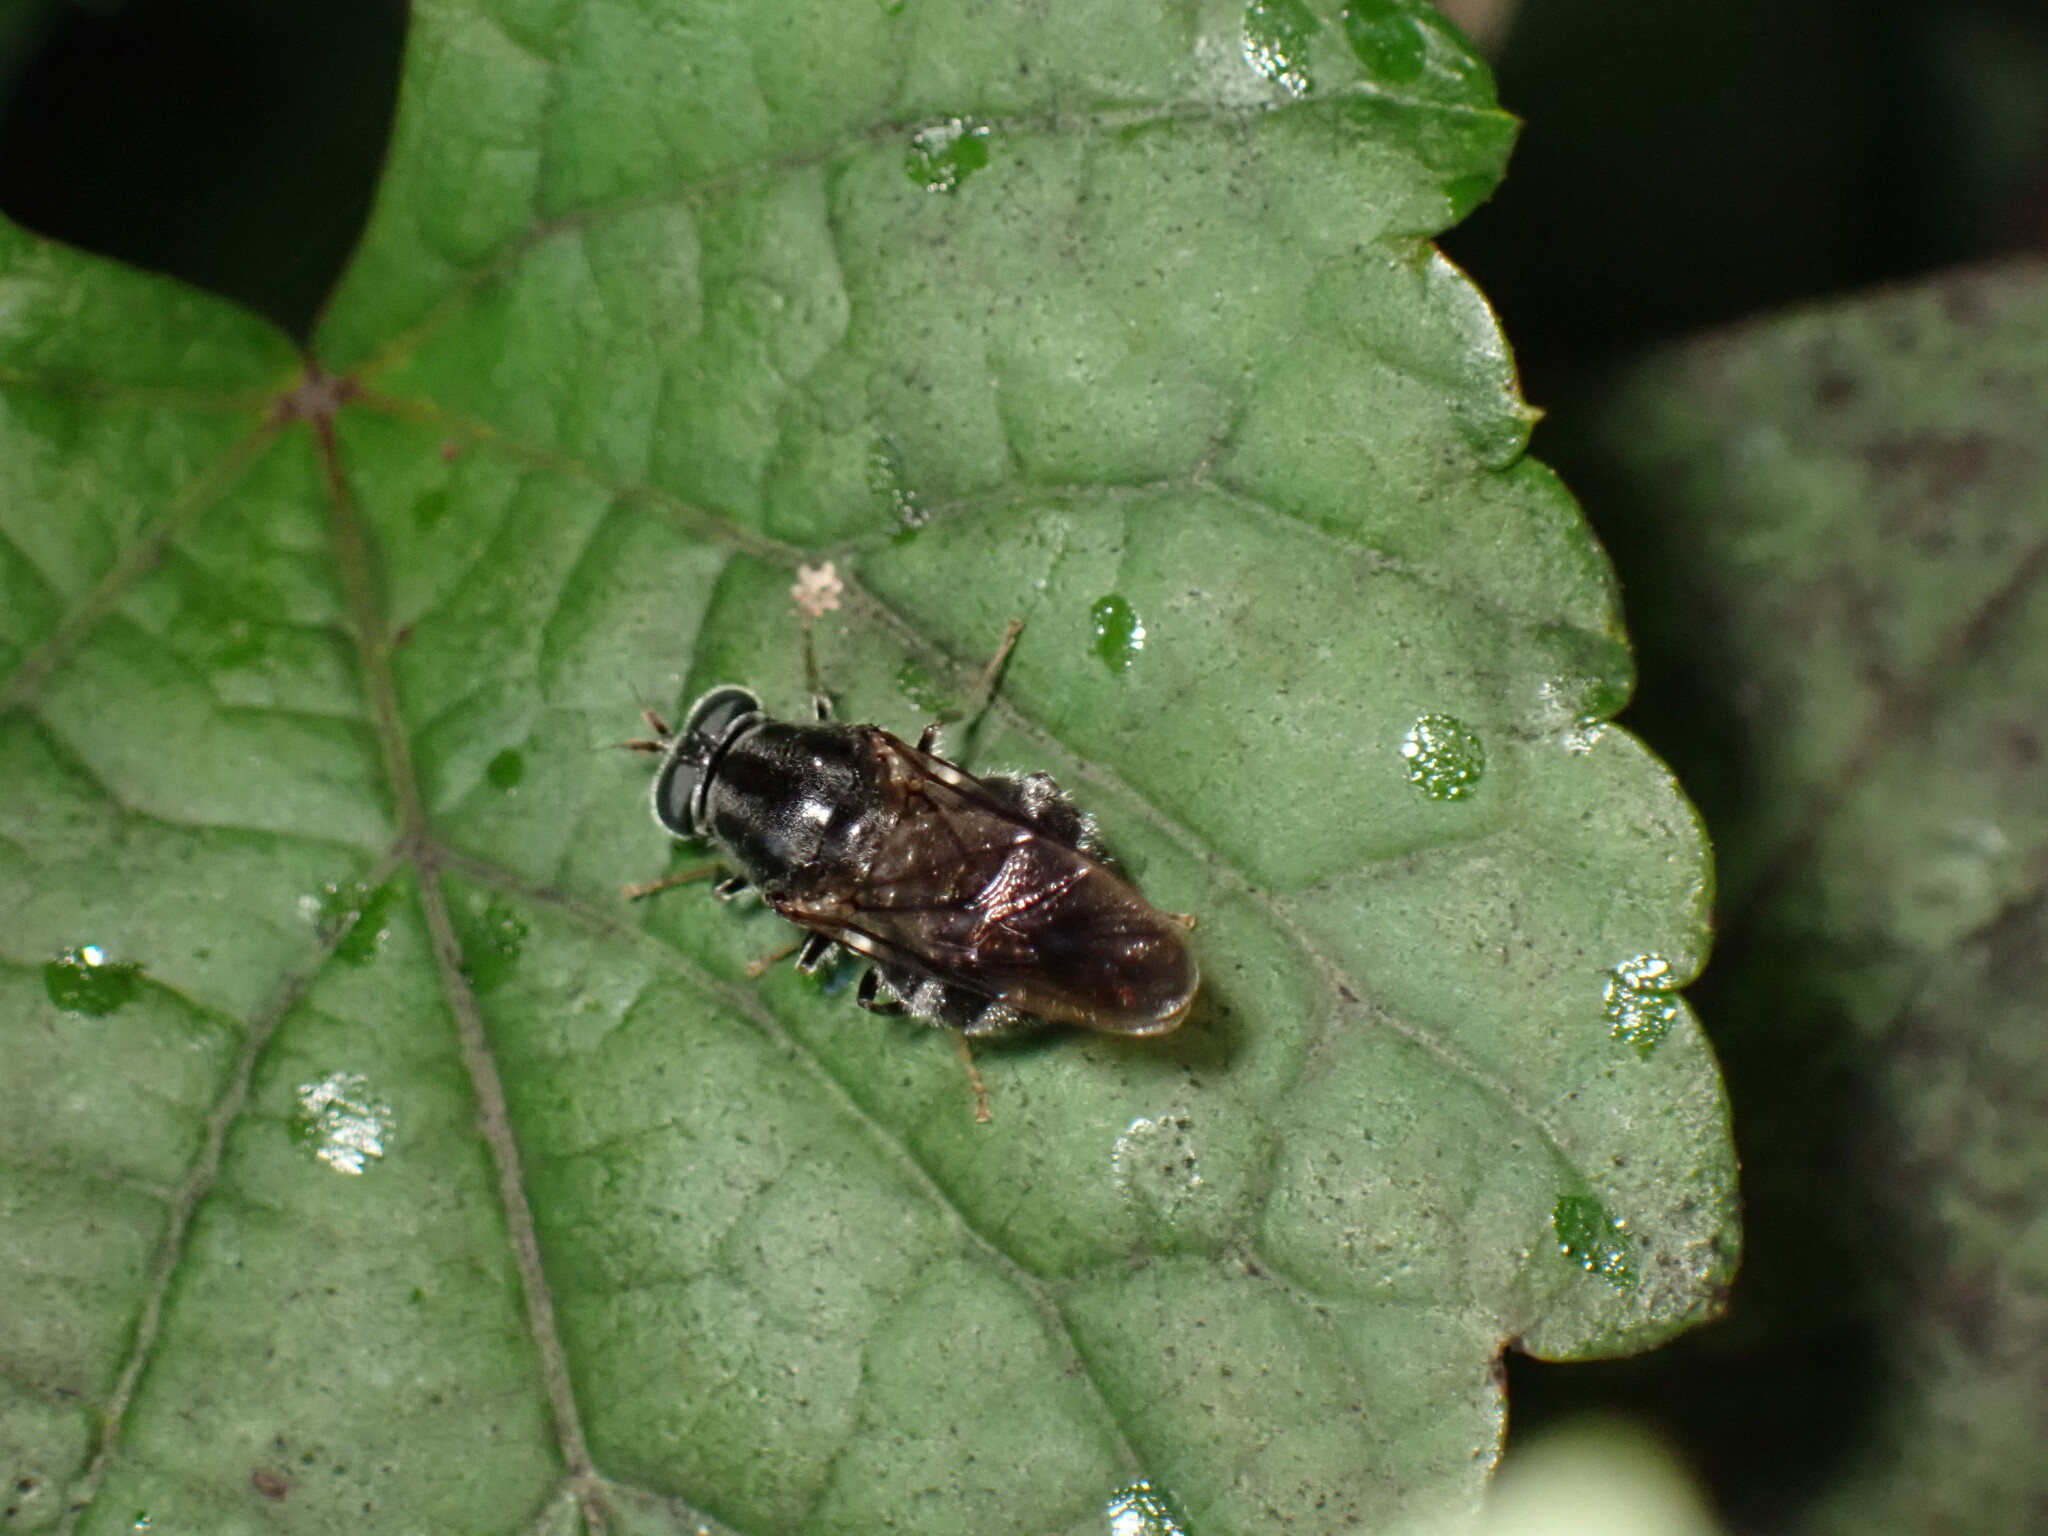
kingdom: Animalia
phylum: Arthropoda
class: Insecta
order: Diptera
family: Stratiomyidae
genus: Adoxomyia
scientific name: Adoxomyia subulata
